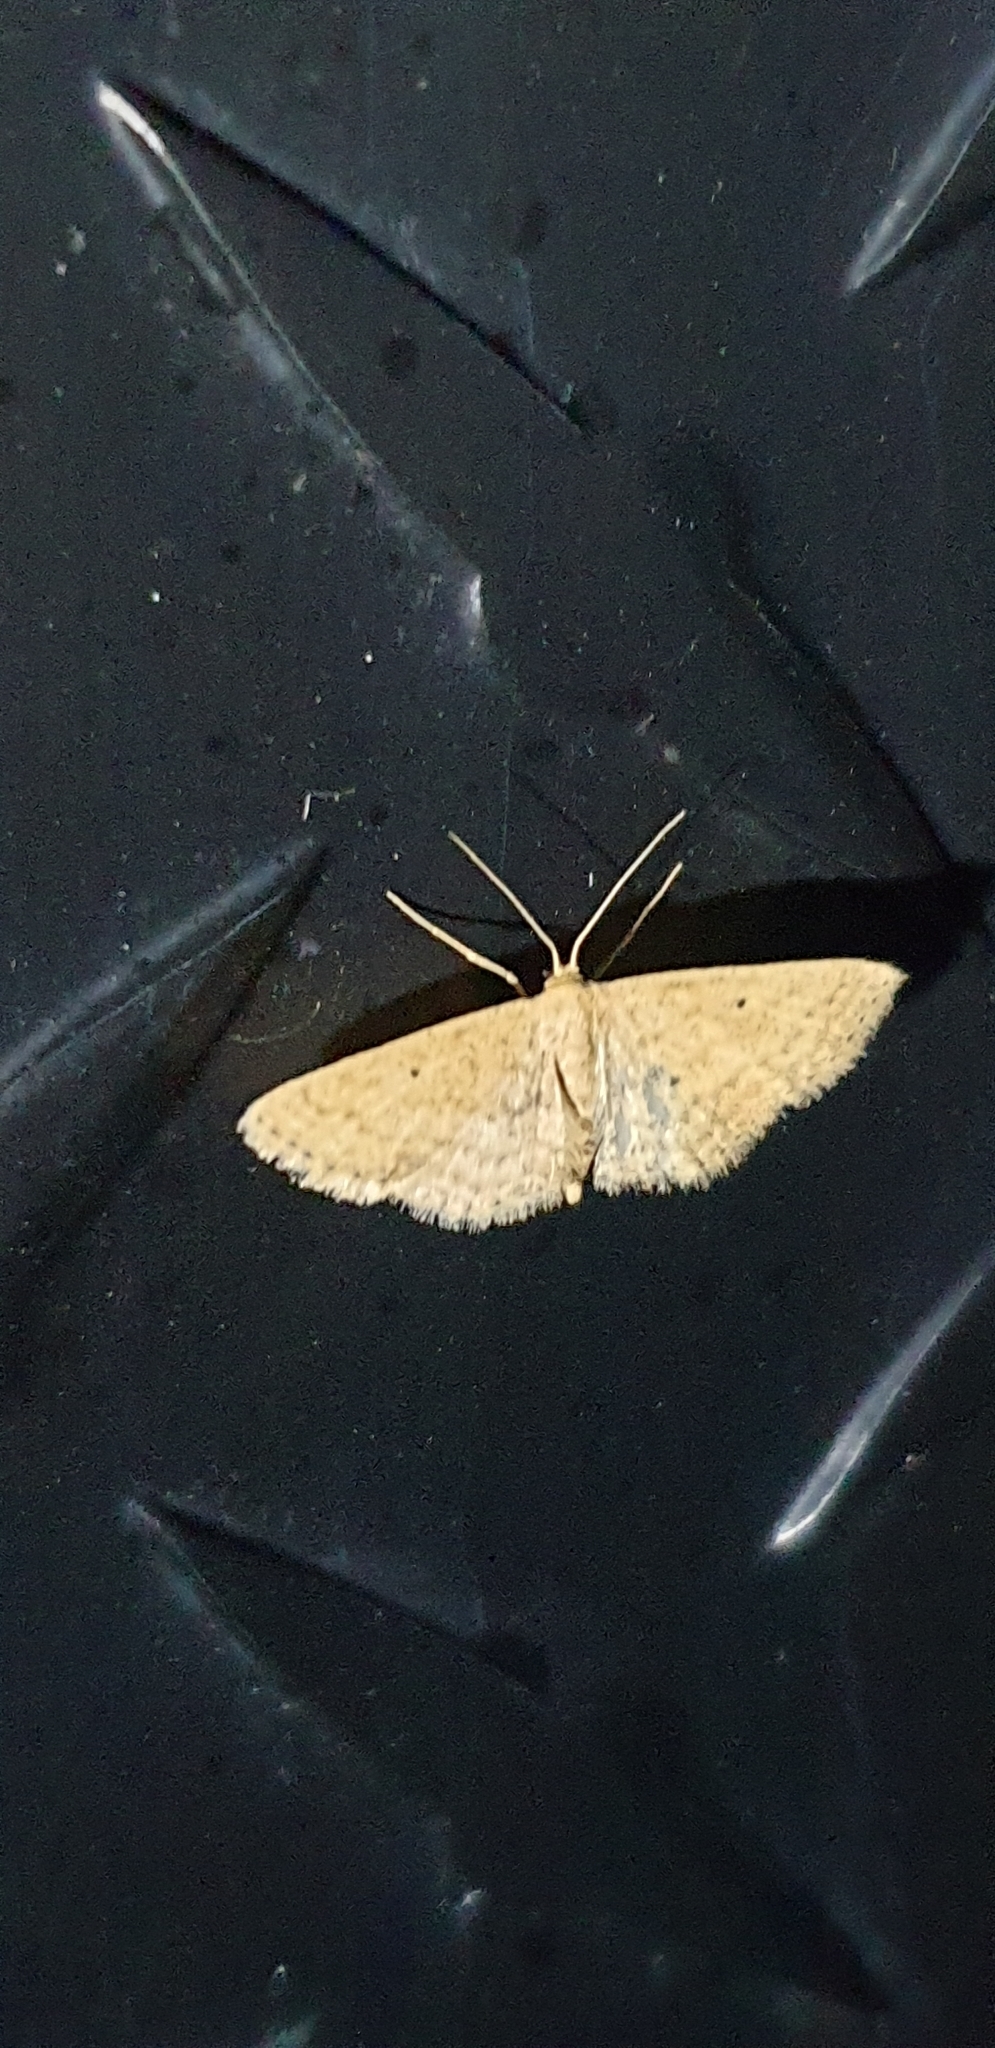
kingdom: Animalia
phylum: Arthropoda
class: Insecta
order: Lepidoptera
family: Geometridae
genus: Scopula
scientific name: Scopula hypochra
